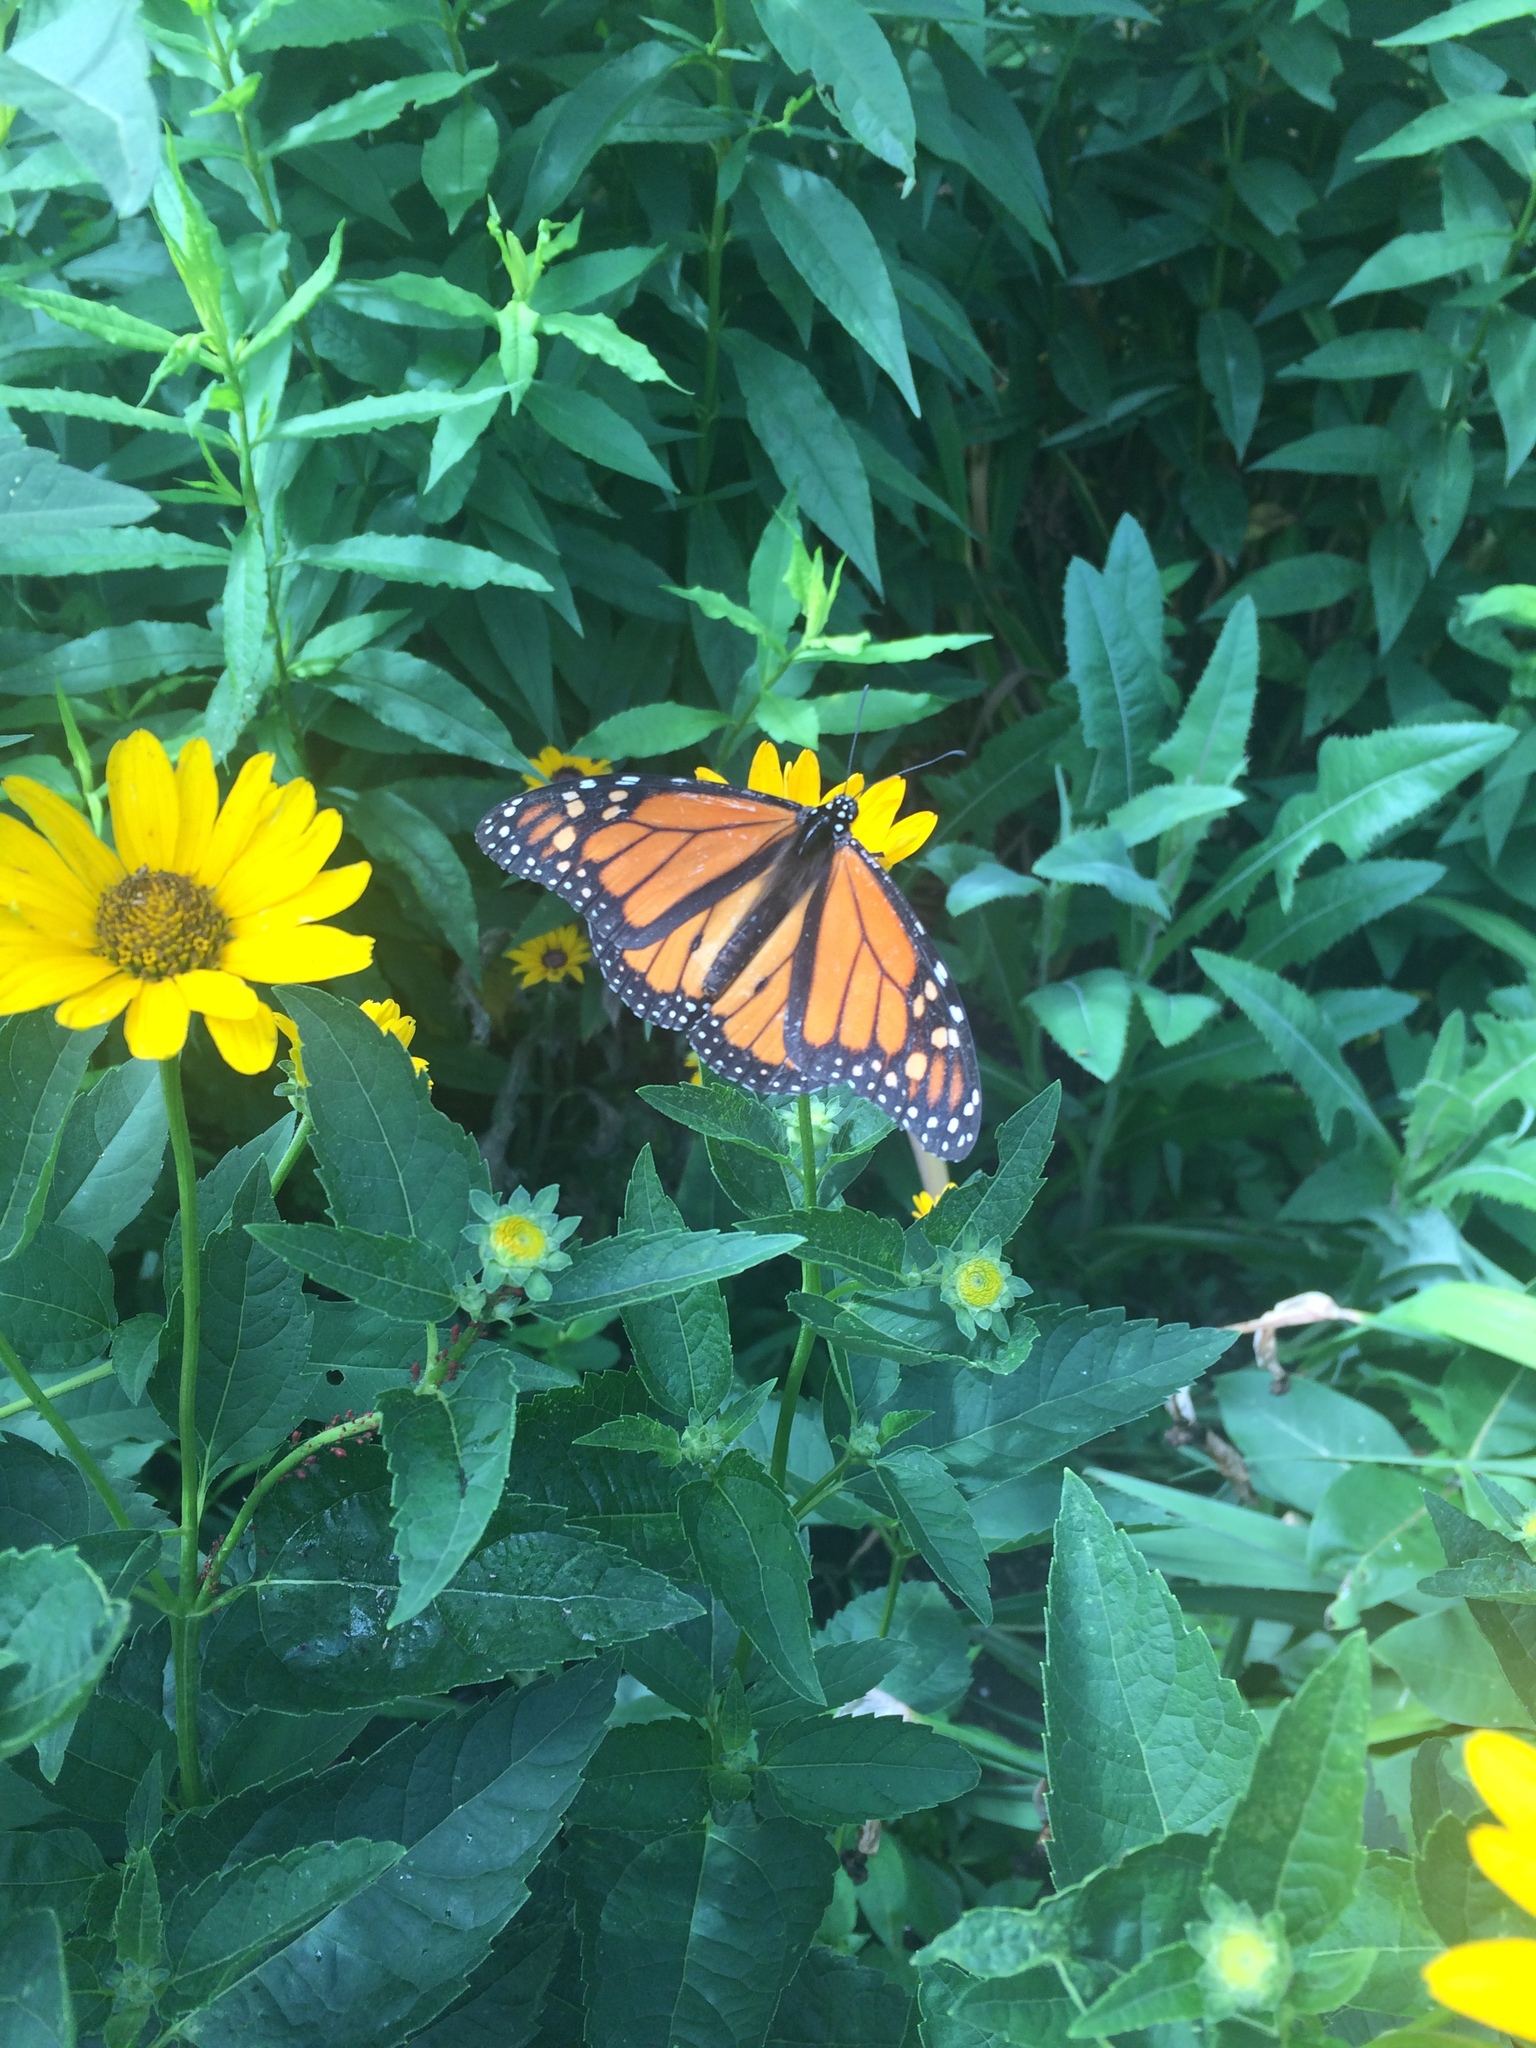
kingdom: Animalia
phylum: Arthropoda
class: Insecta
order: Lepidoptera
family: Nymphalidae
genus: Danaus
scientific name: Danaus plexippus
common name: Monarch
